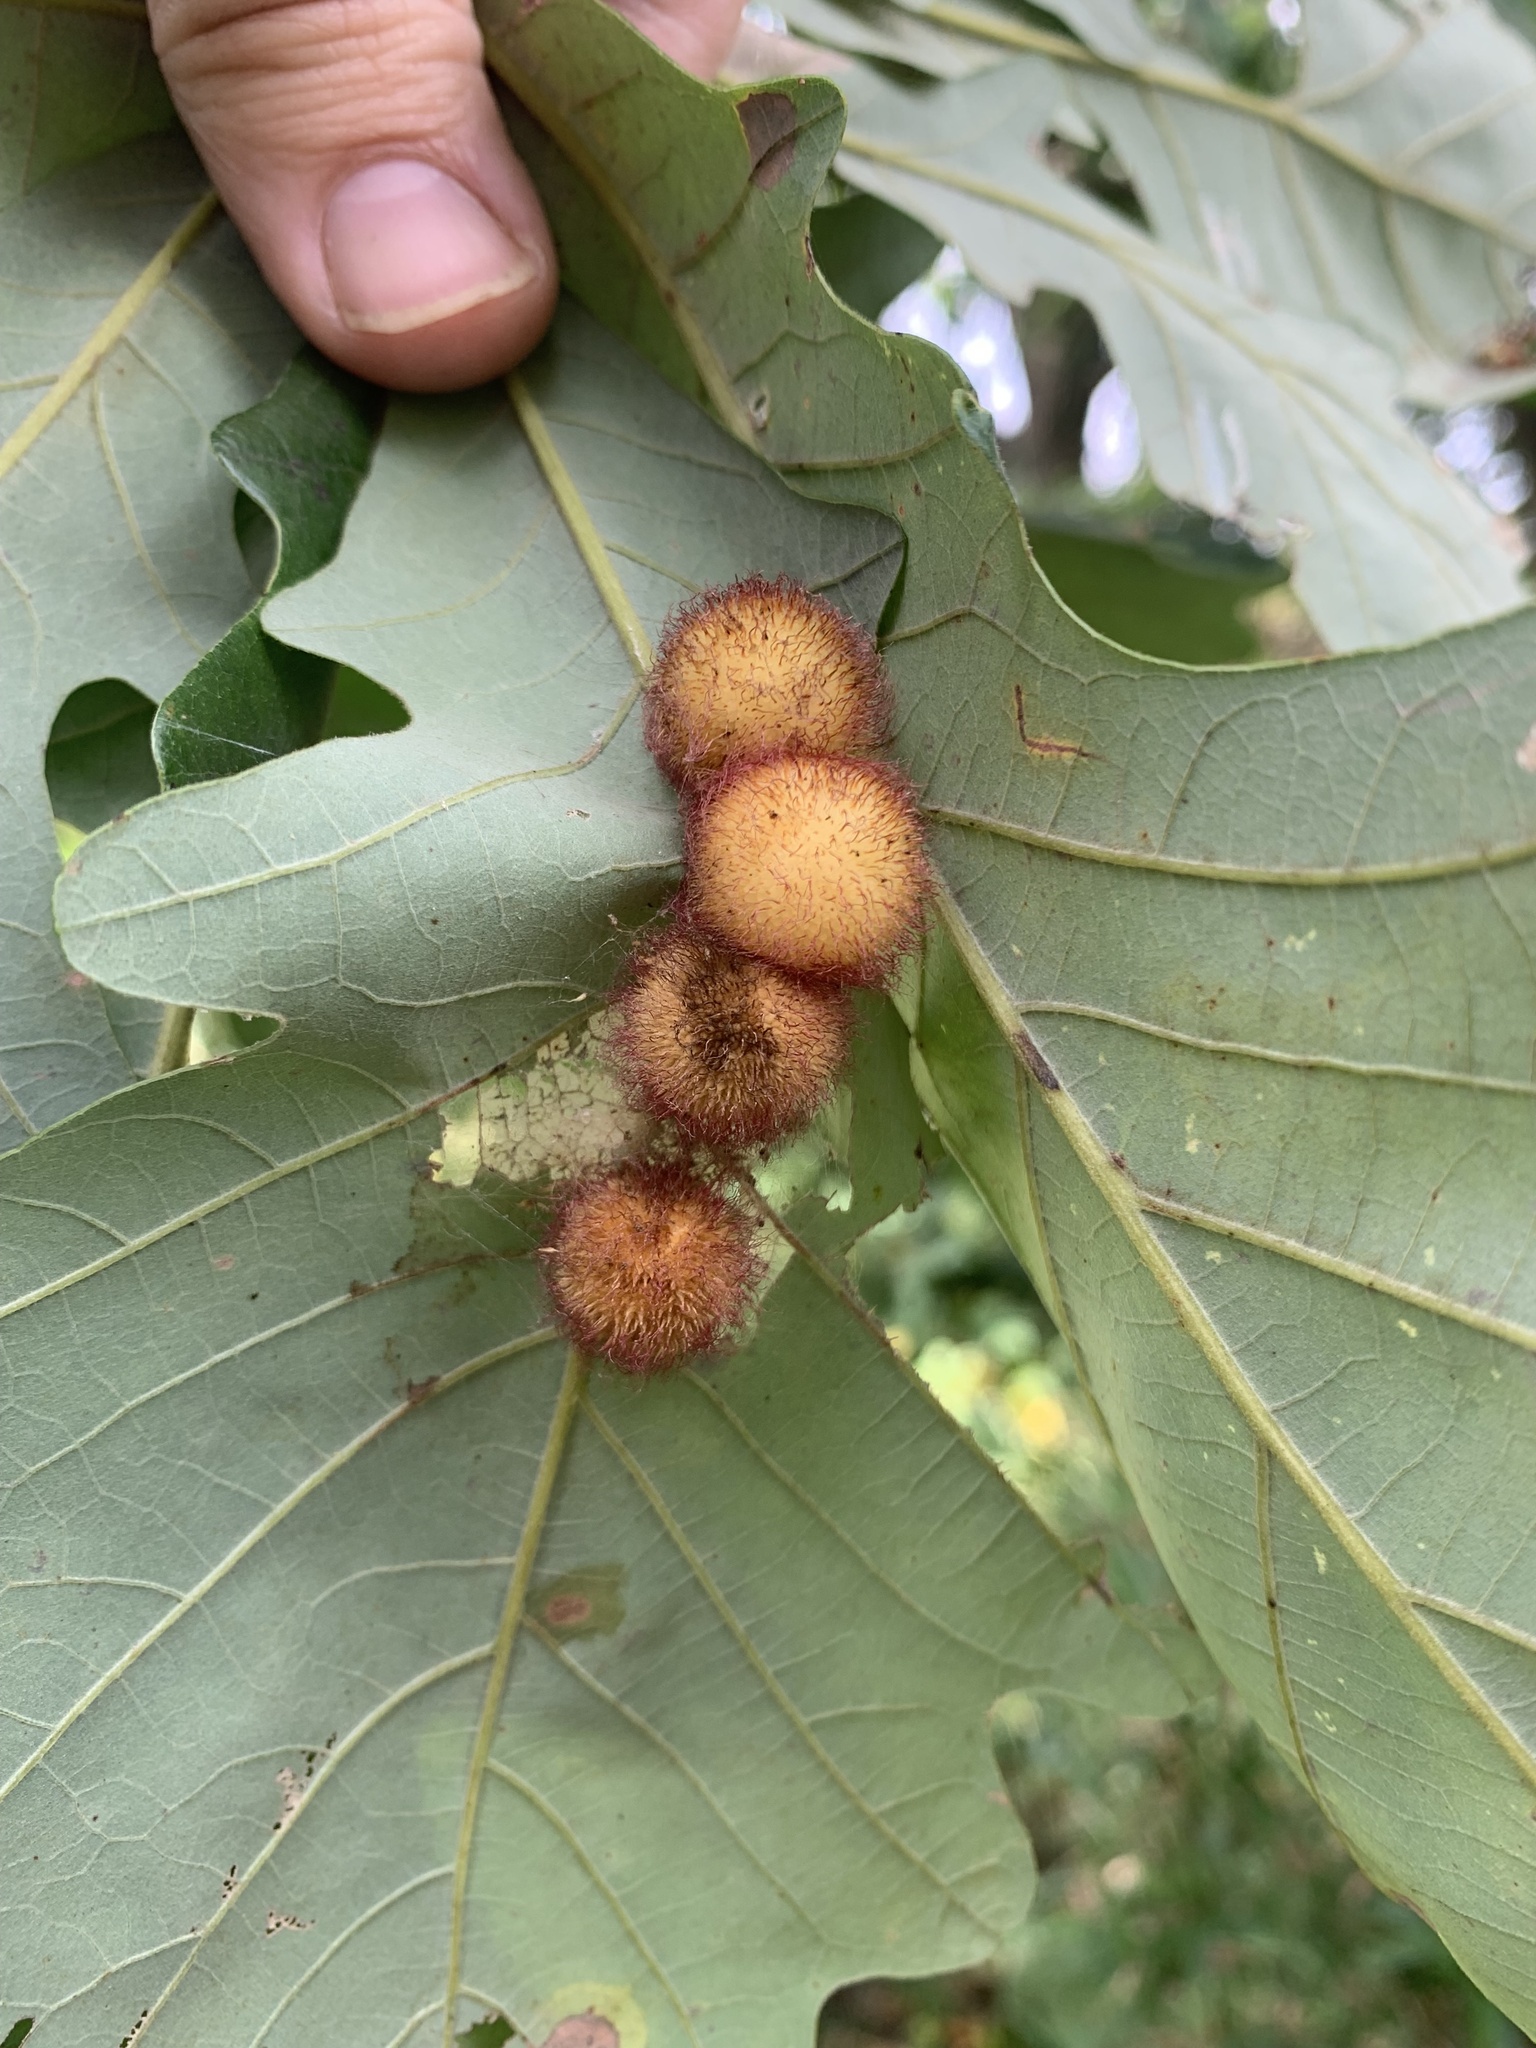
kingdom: Animalia
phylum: Arthropoda
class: Insecta
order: Hymenoptera
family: Cynipidae
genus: Acraspis
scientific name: Acraspis villosa
